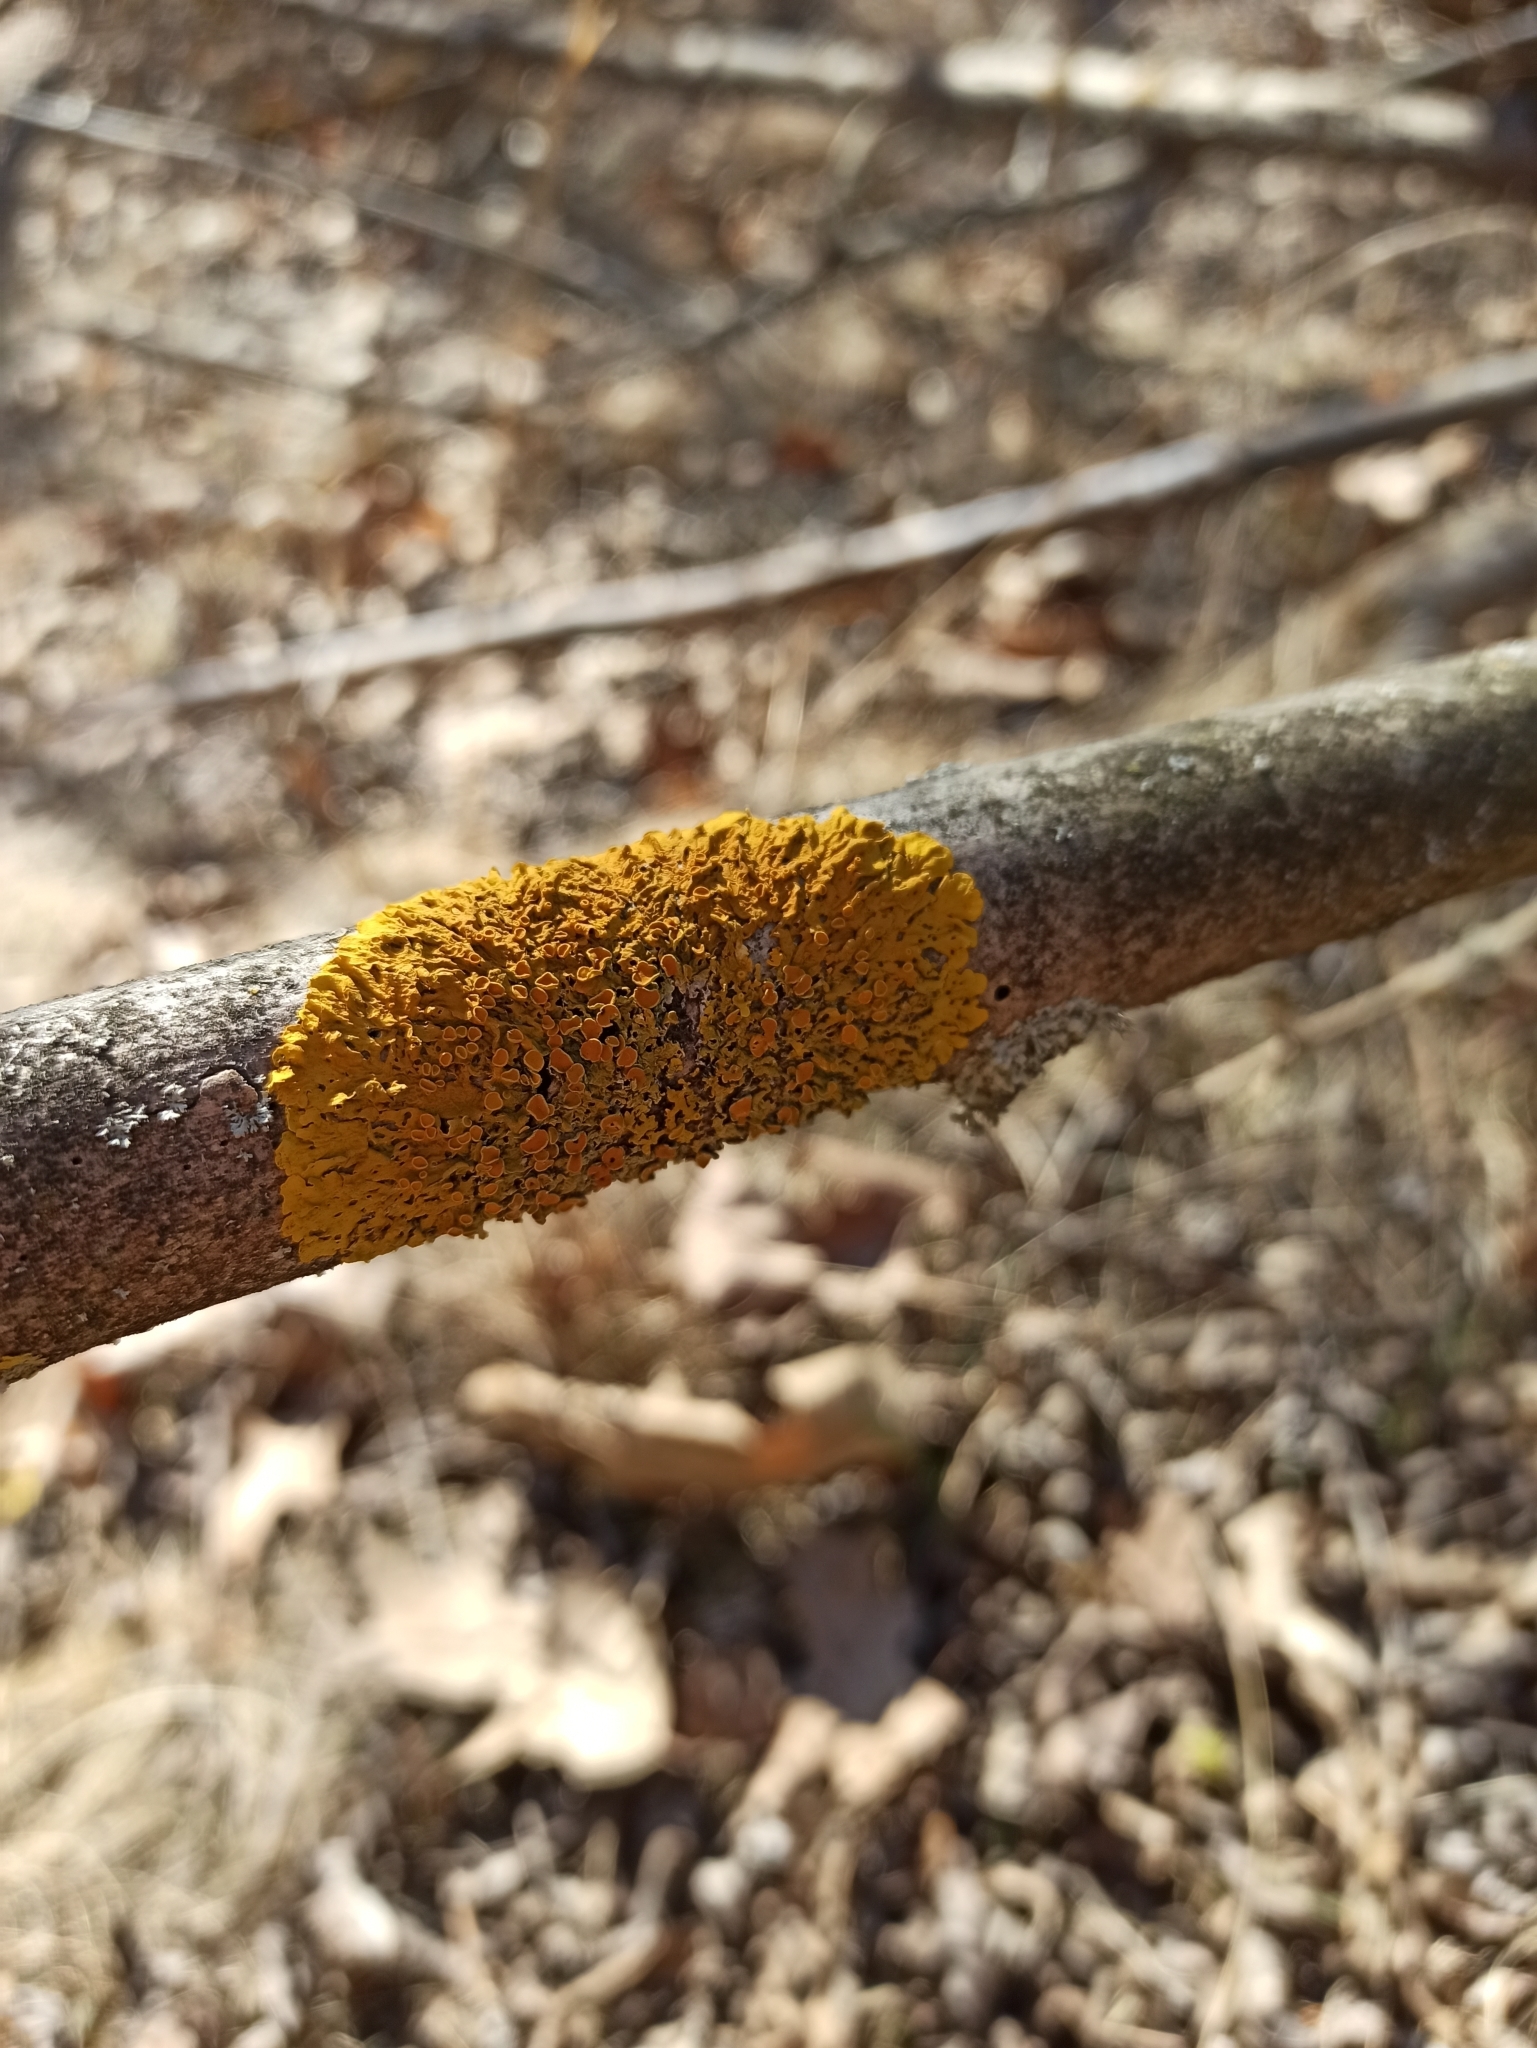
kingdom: Fungi
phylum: Ascomycota
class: Lecanoromycetes
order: Teloschistales
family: Teloschistaceae
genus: Xanthoria
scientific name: Xanthoria parietina
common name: Common orange lichen
